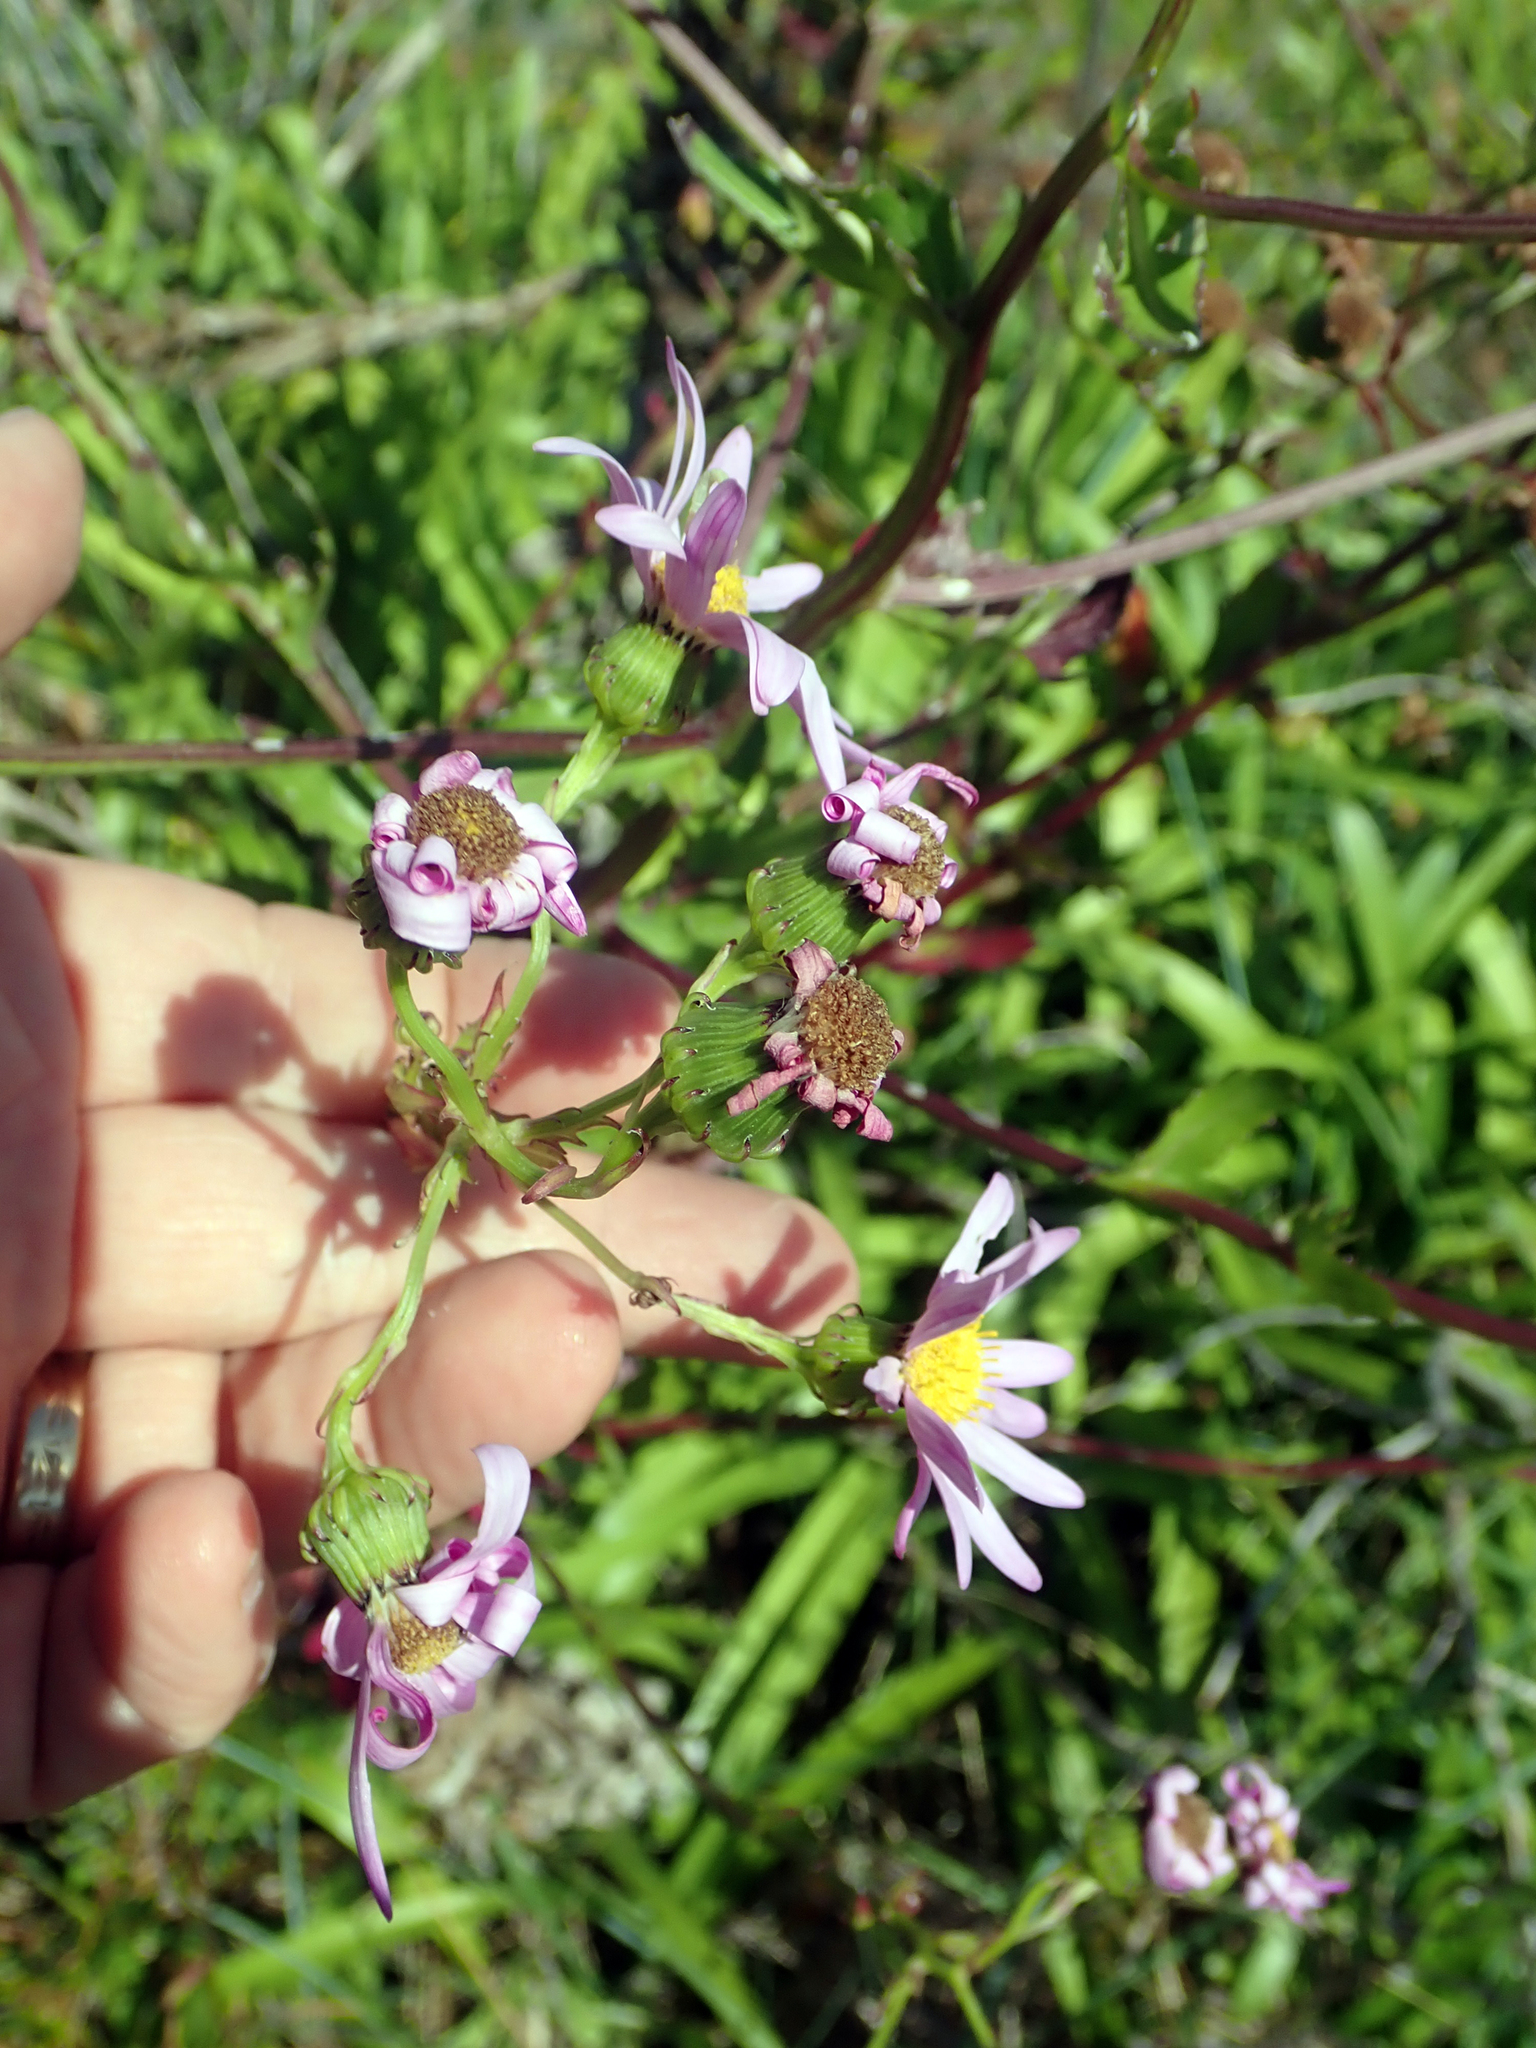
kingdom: Plantae
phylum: Tracheophyta
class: Magnoliopsida
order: Asterales
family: Asteraceae
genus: Senecio
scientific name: Senecio glastifolius
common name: Woad-leaved ragwort
